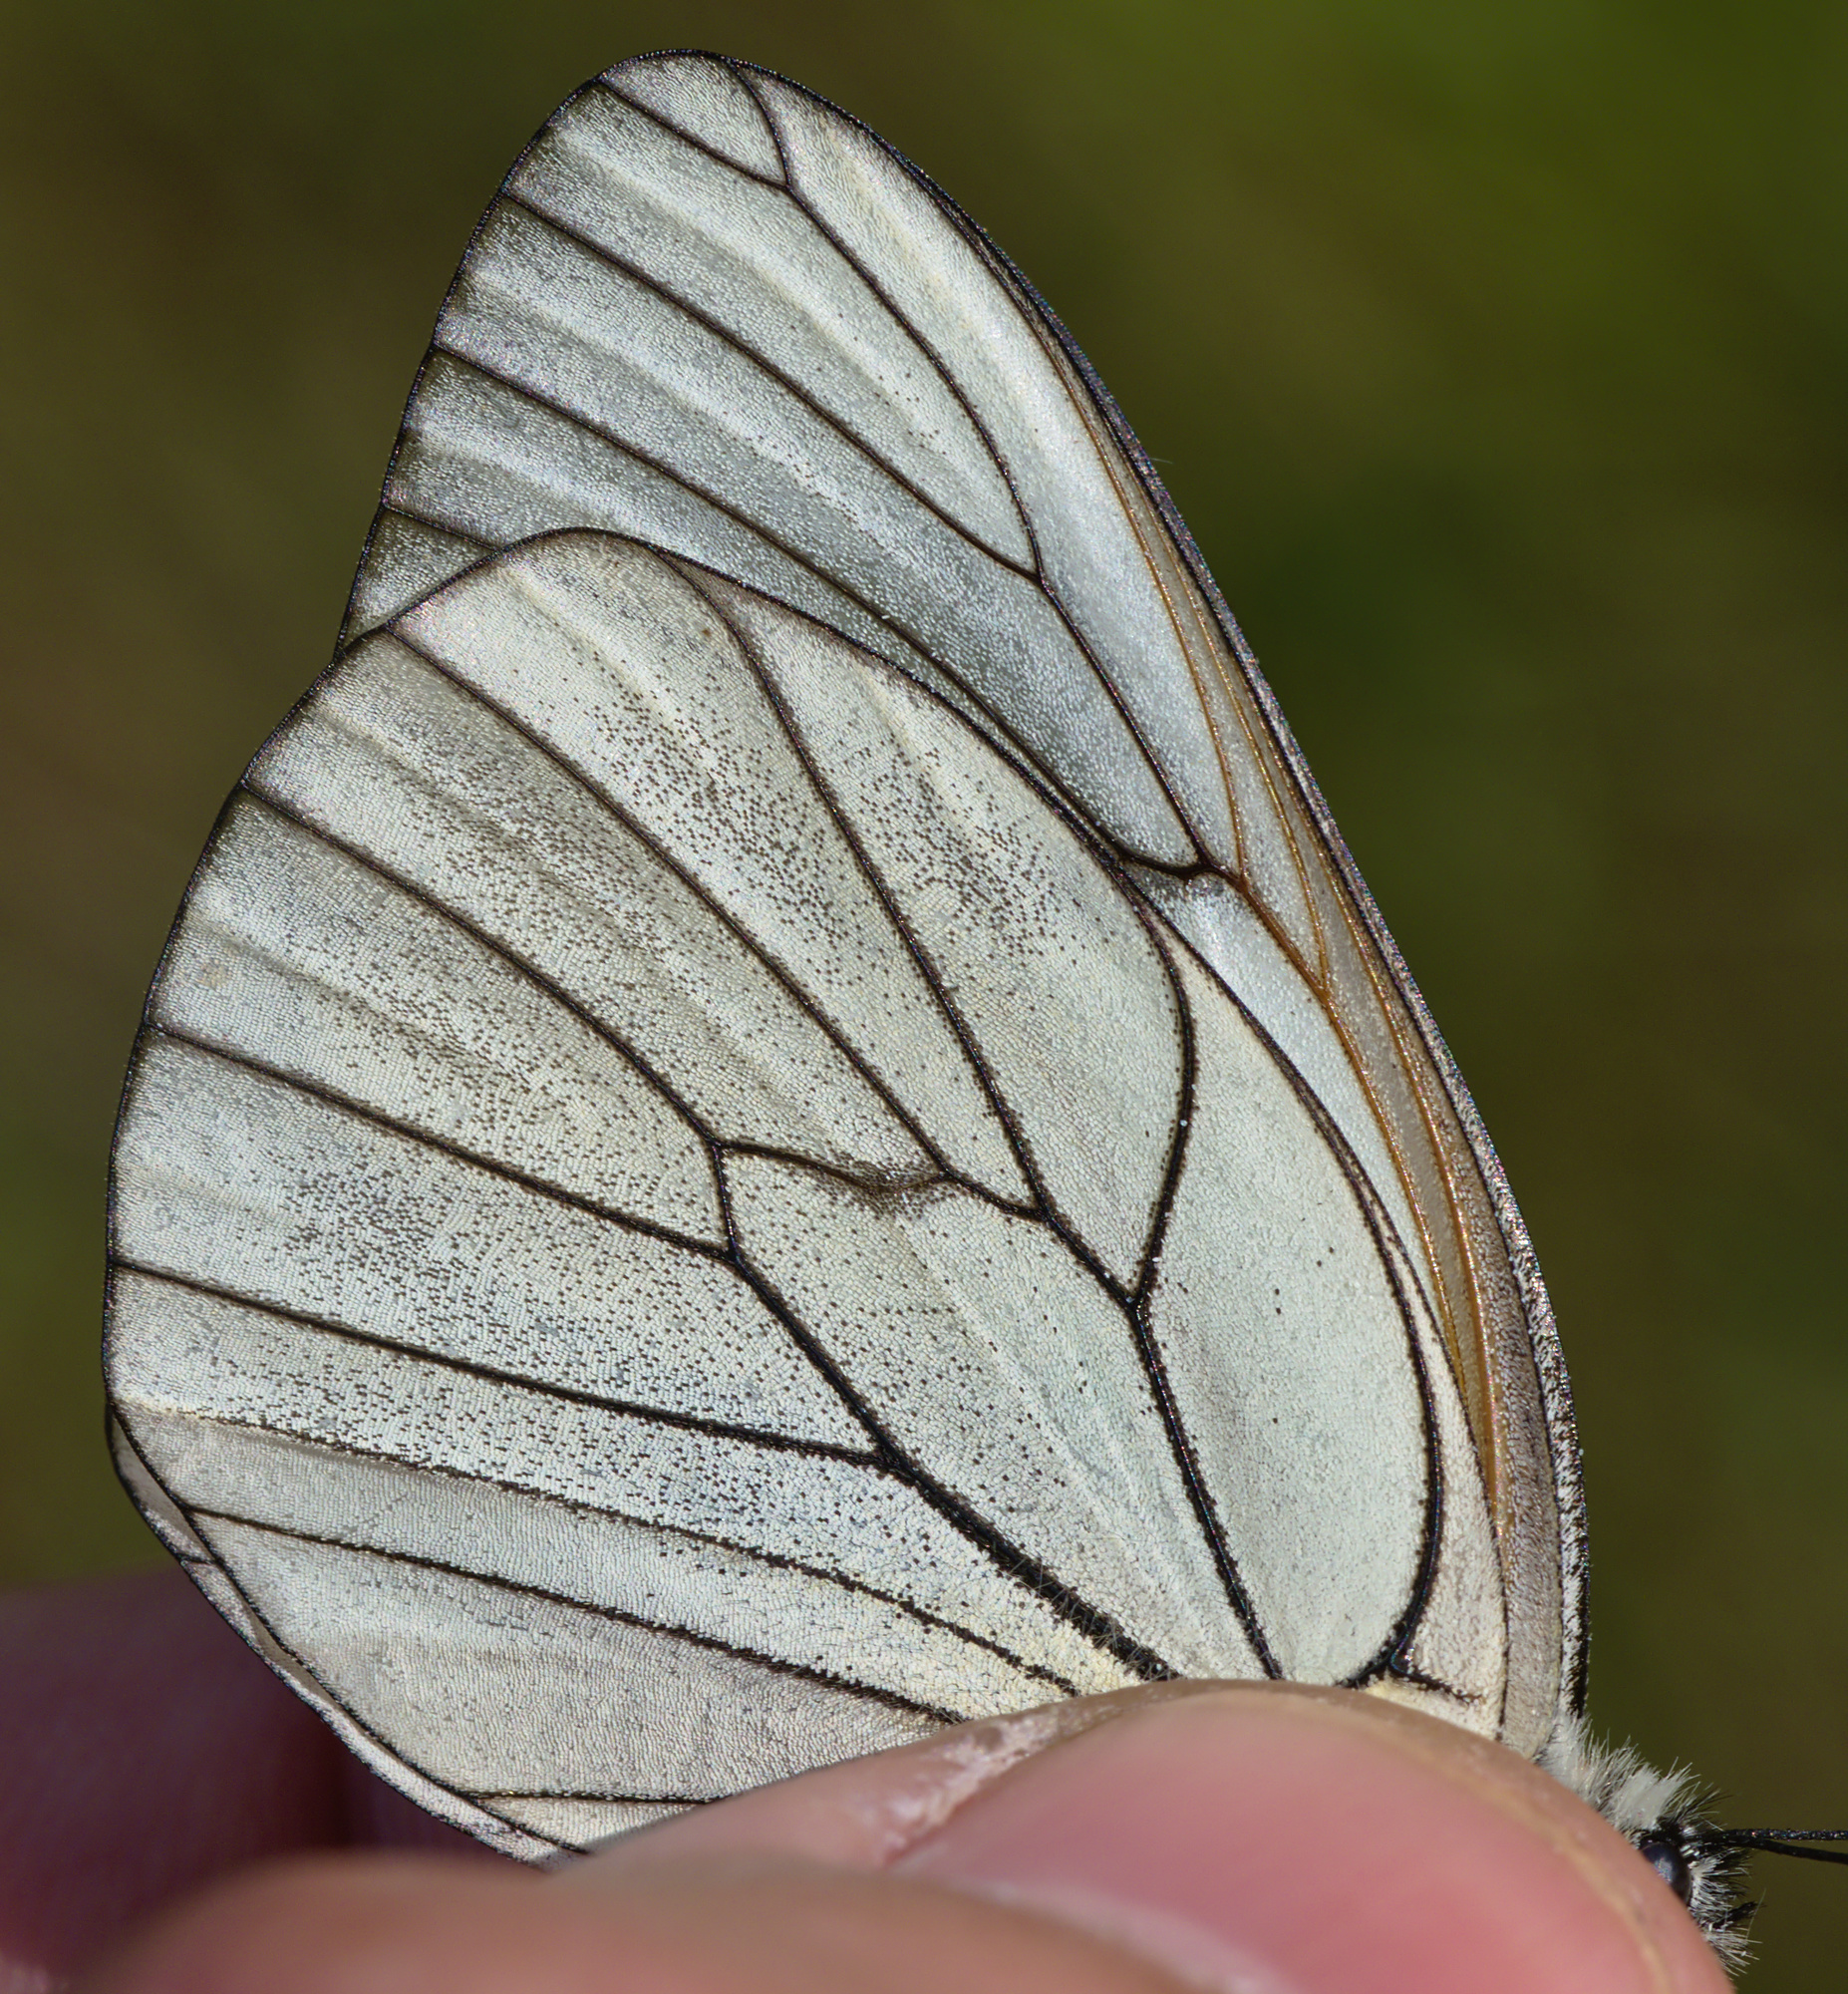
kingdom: Animalia
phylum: Arthropoda
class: Insecta
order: Lepidoptera
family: Pieridae
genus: Aporia
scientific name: Aporia crataegi
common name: Black-veined white
